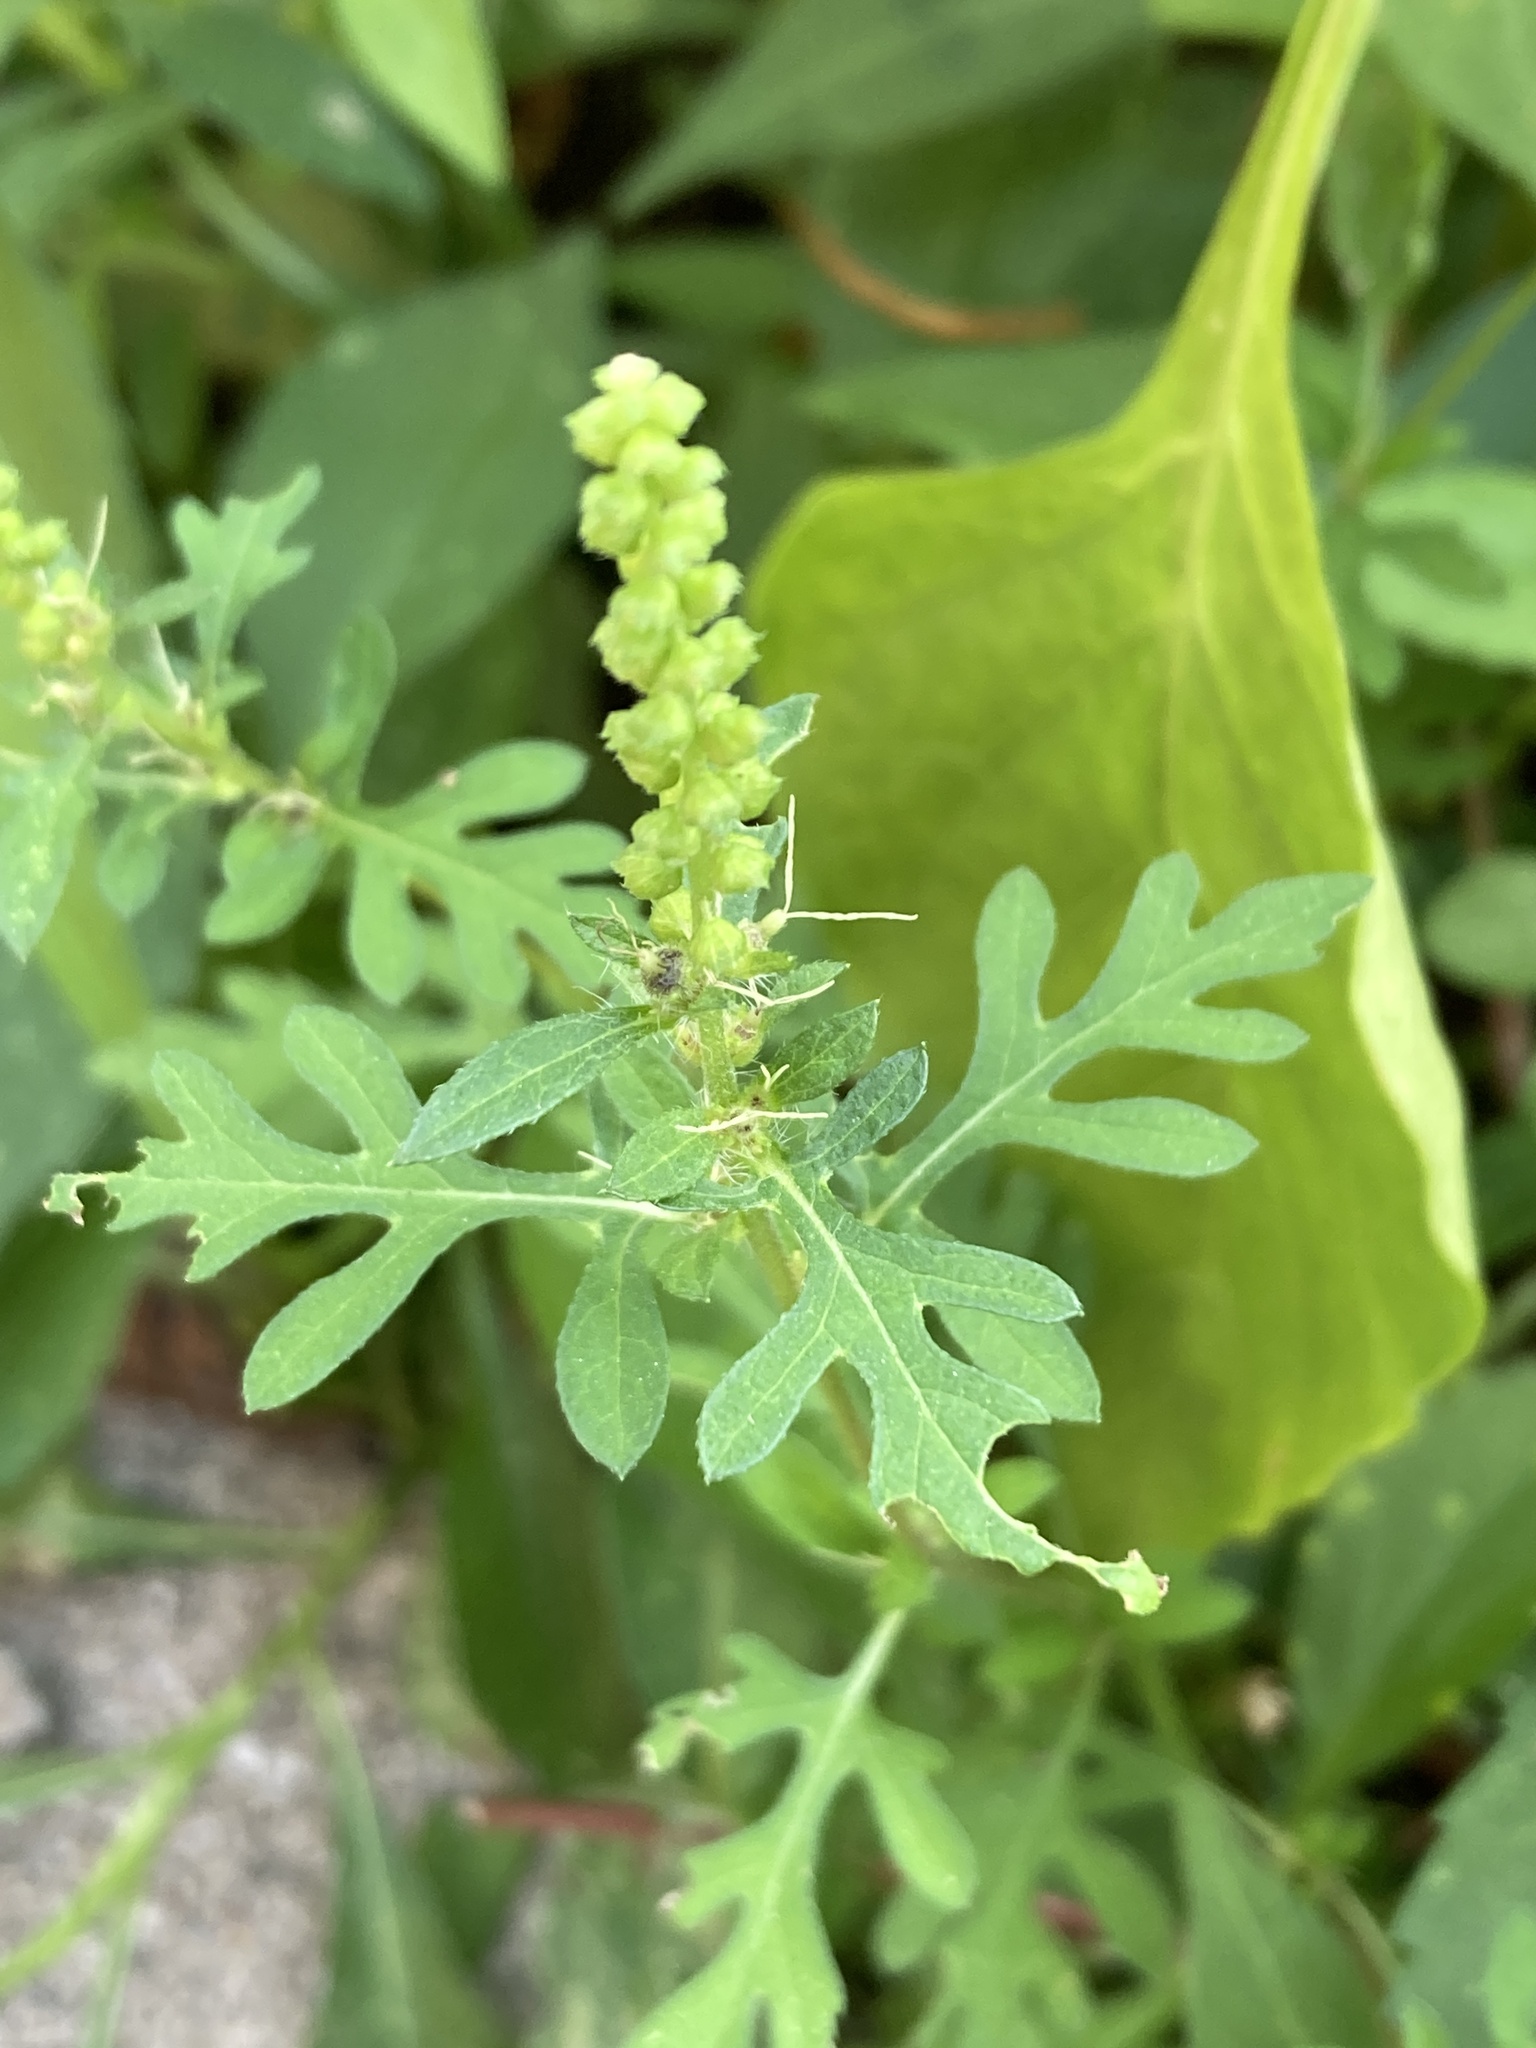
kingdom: Plantae
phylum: Tracheophyta
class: Magnoliopsida
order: Asterales
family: Asteraceae
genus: Ambrosia
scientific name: Ambrosia artemisiifolia
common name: Annual ragweed
